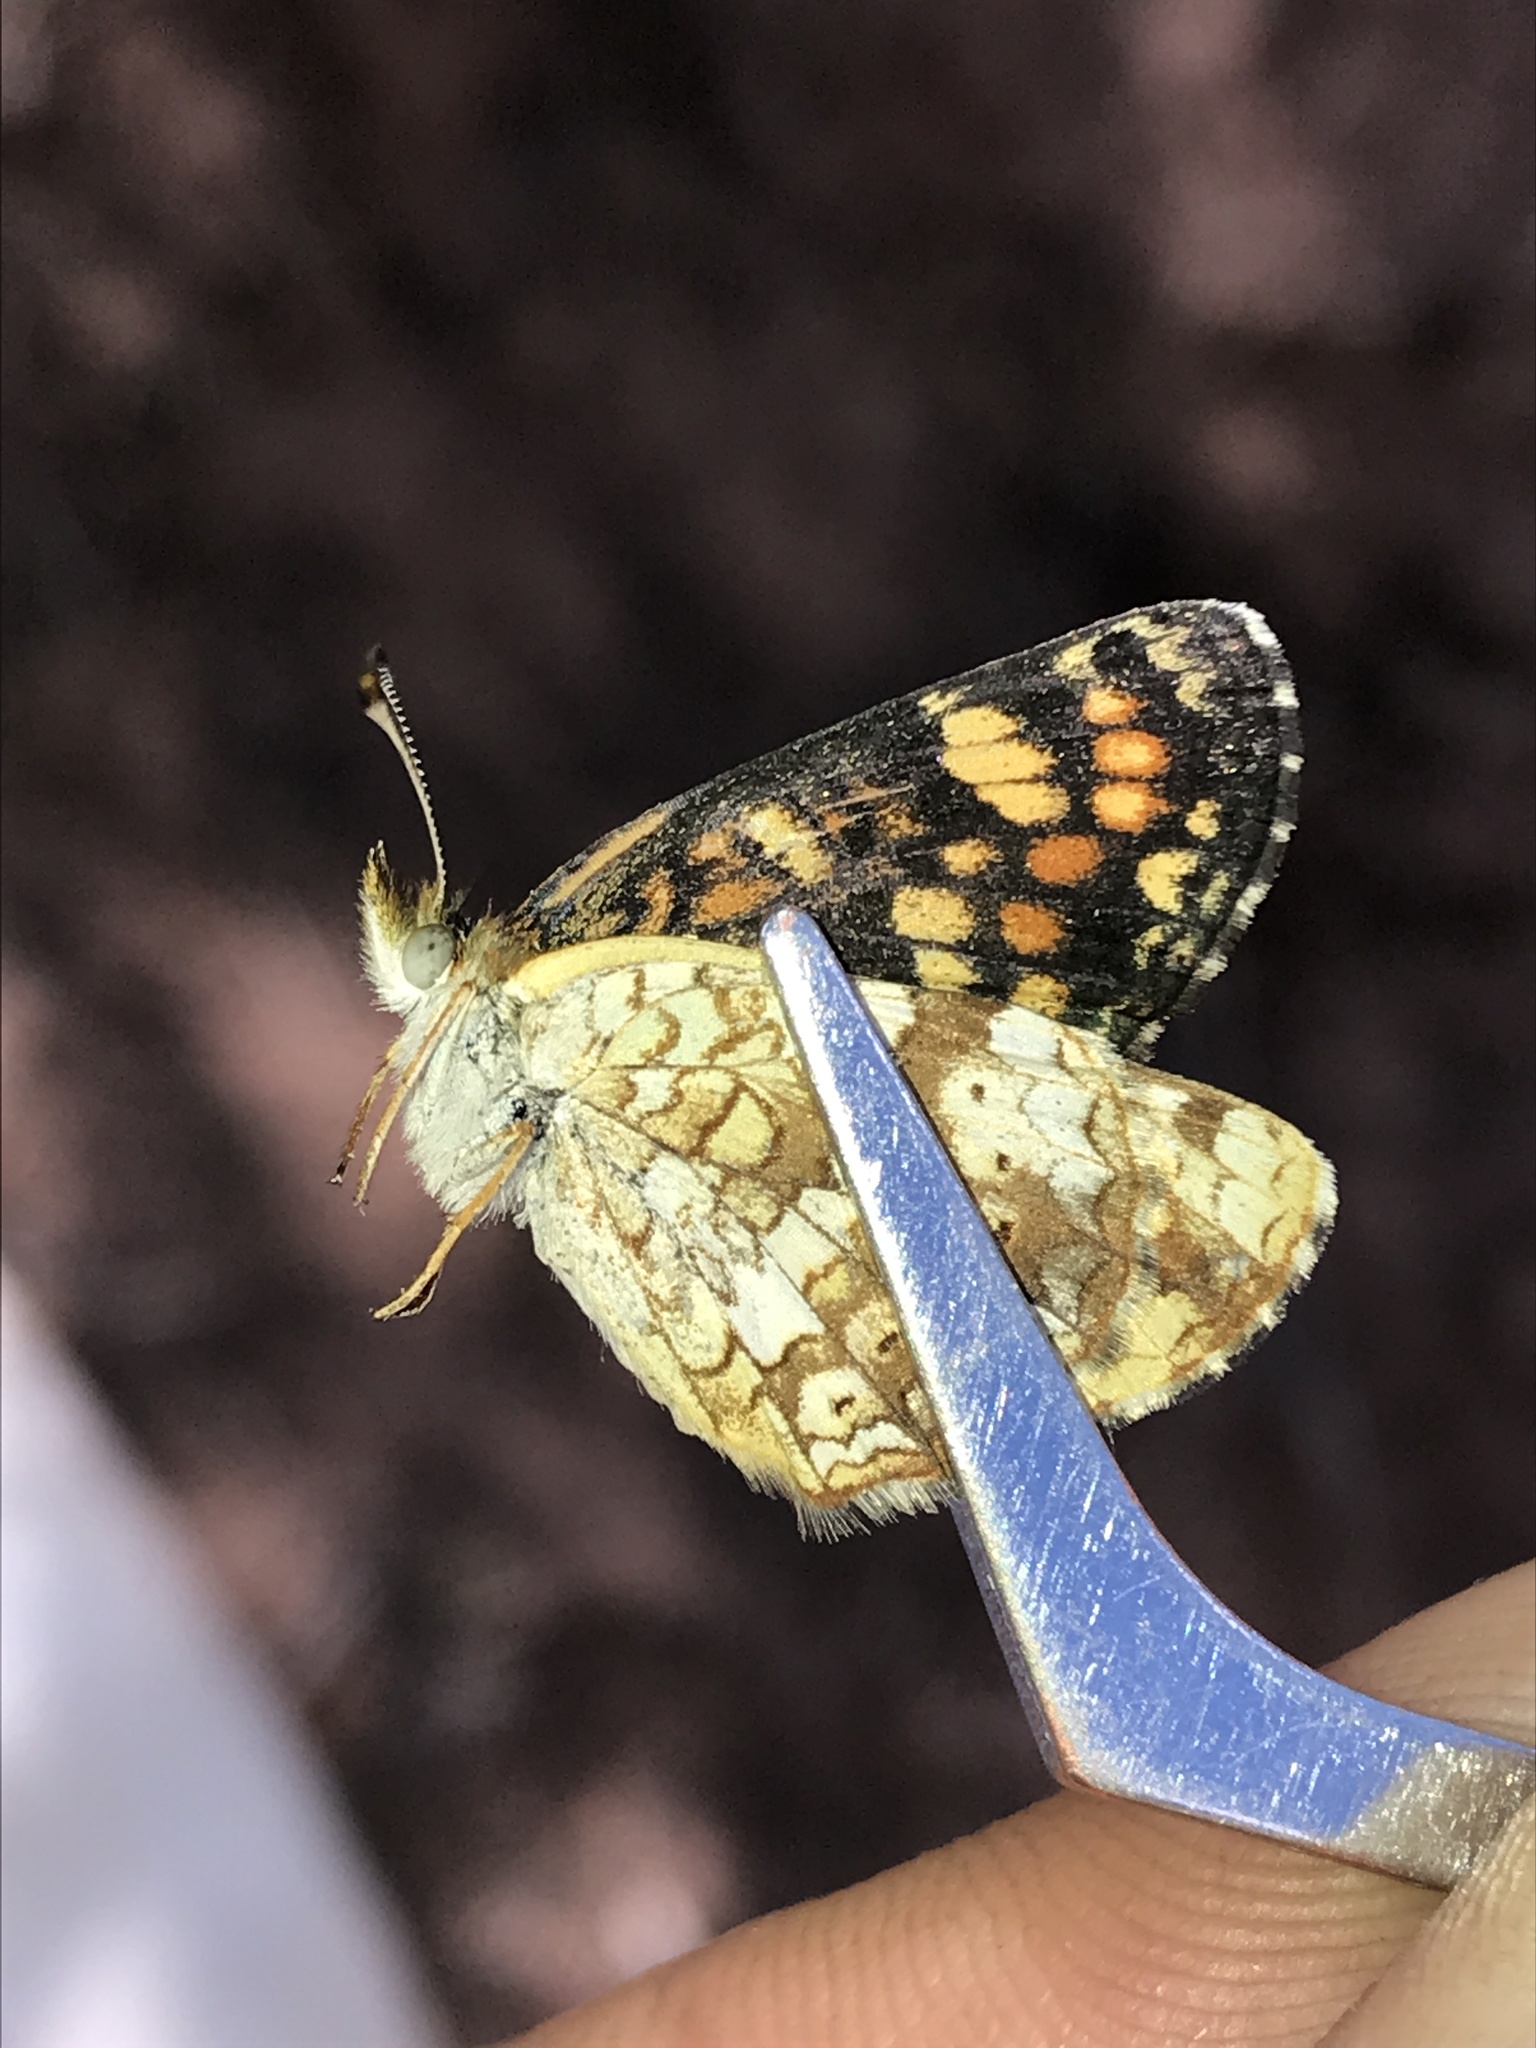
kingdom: Animalia
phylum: Arthropoda
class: Insecta
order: Lepidoptera
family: Nymphalidae
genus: Phyciodes
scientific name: Phyciodes tharos
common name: Pearl crescent
